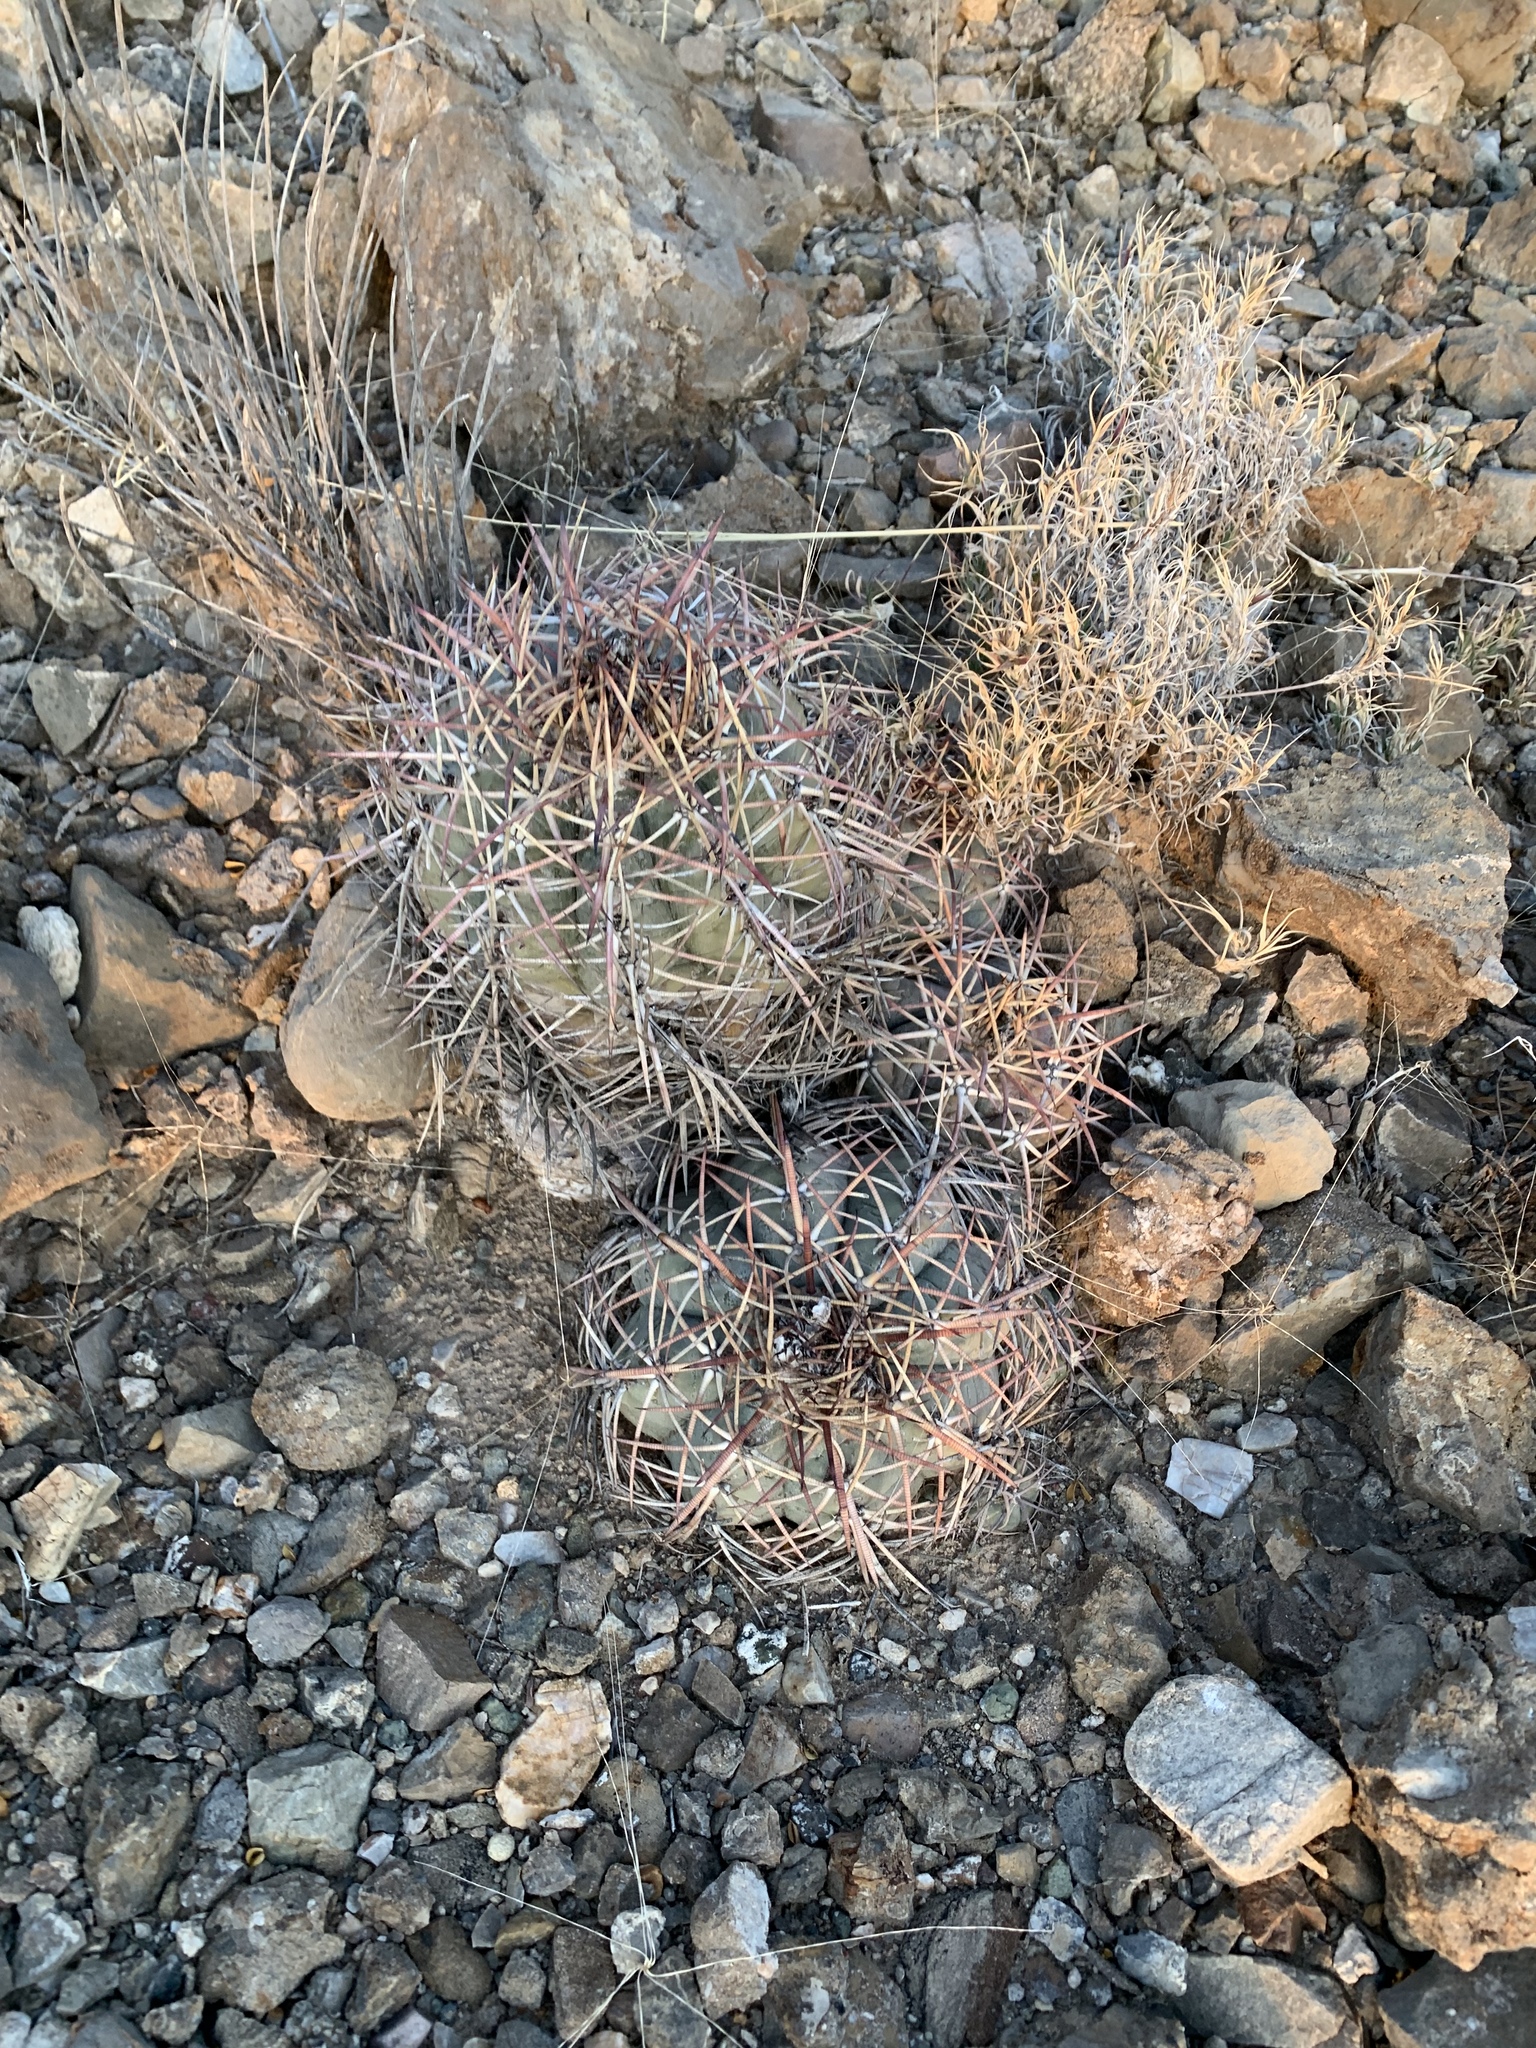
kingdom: Plantae
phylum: Tracheophyta
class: Magnoliopsida
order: Caryophyllales
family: Cactaceae
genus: Echinocactus
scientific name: Echinocactus horizonthalonius
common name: Devilshead
